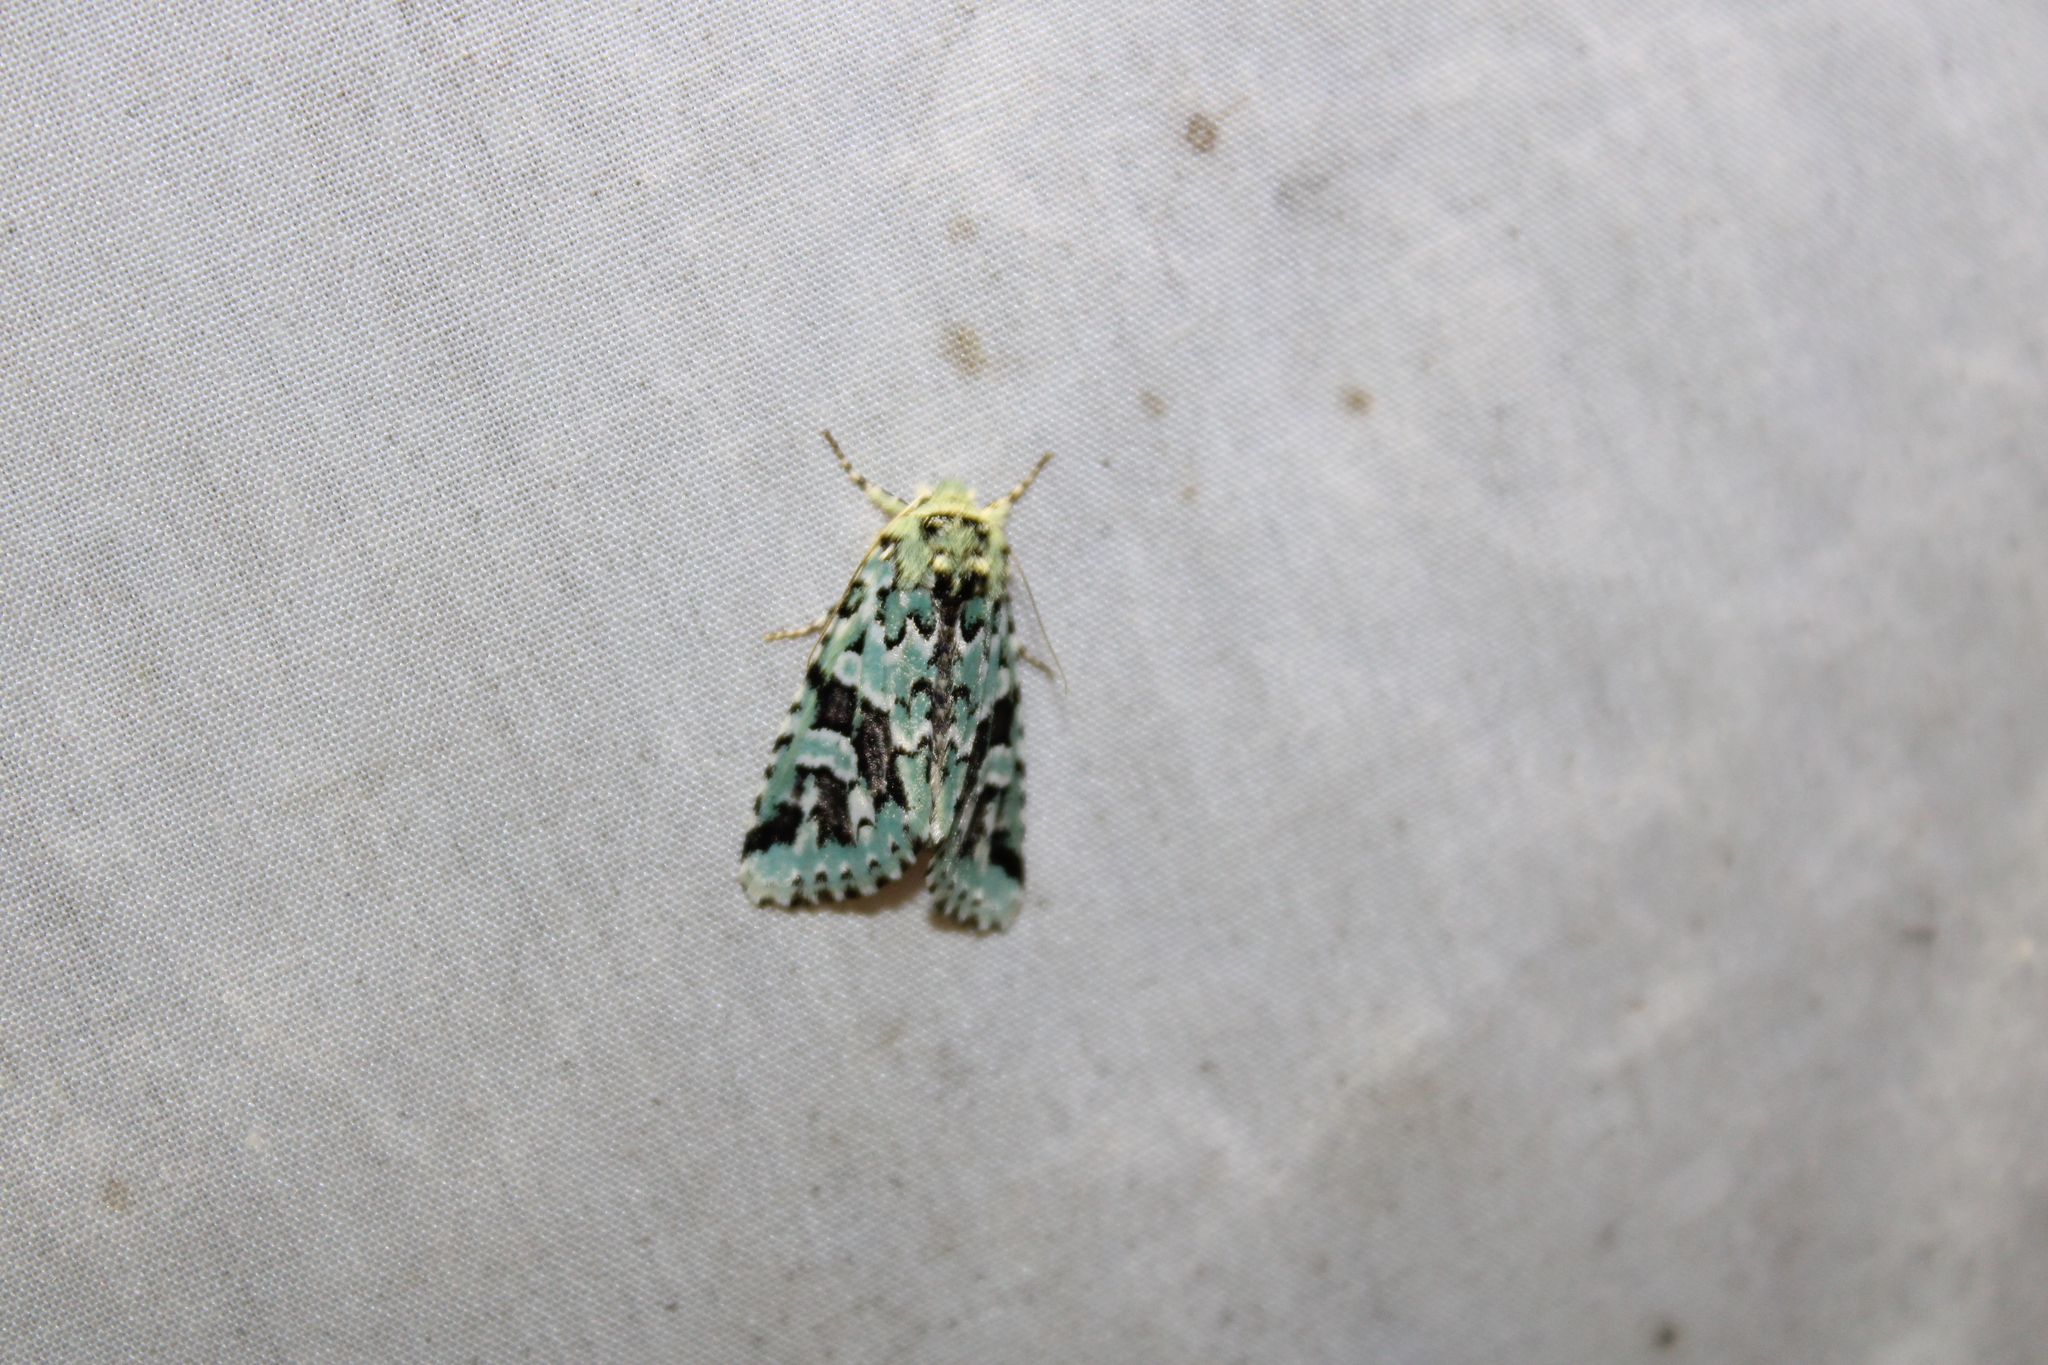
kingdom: Animalia
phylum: Arthropoda
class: Insecta
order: Lepidoptera
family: Noctuidae
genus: Feralia
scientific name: Feralia comstocki
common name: Comstock's sallow
